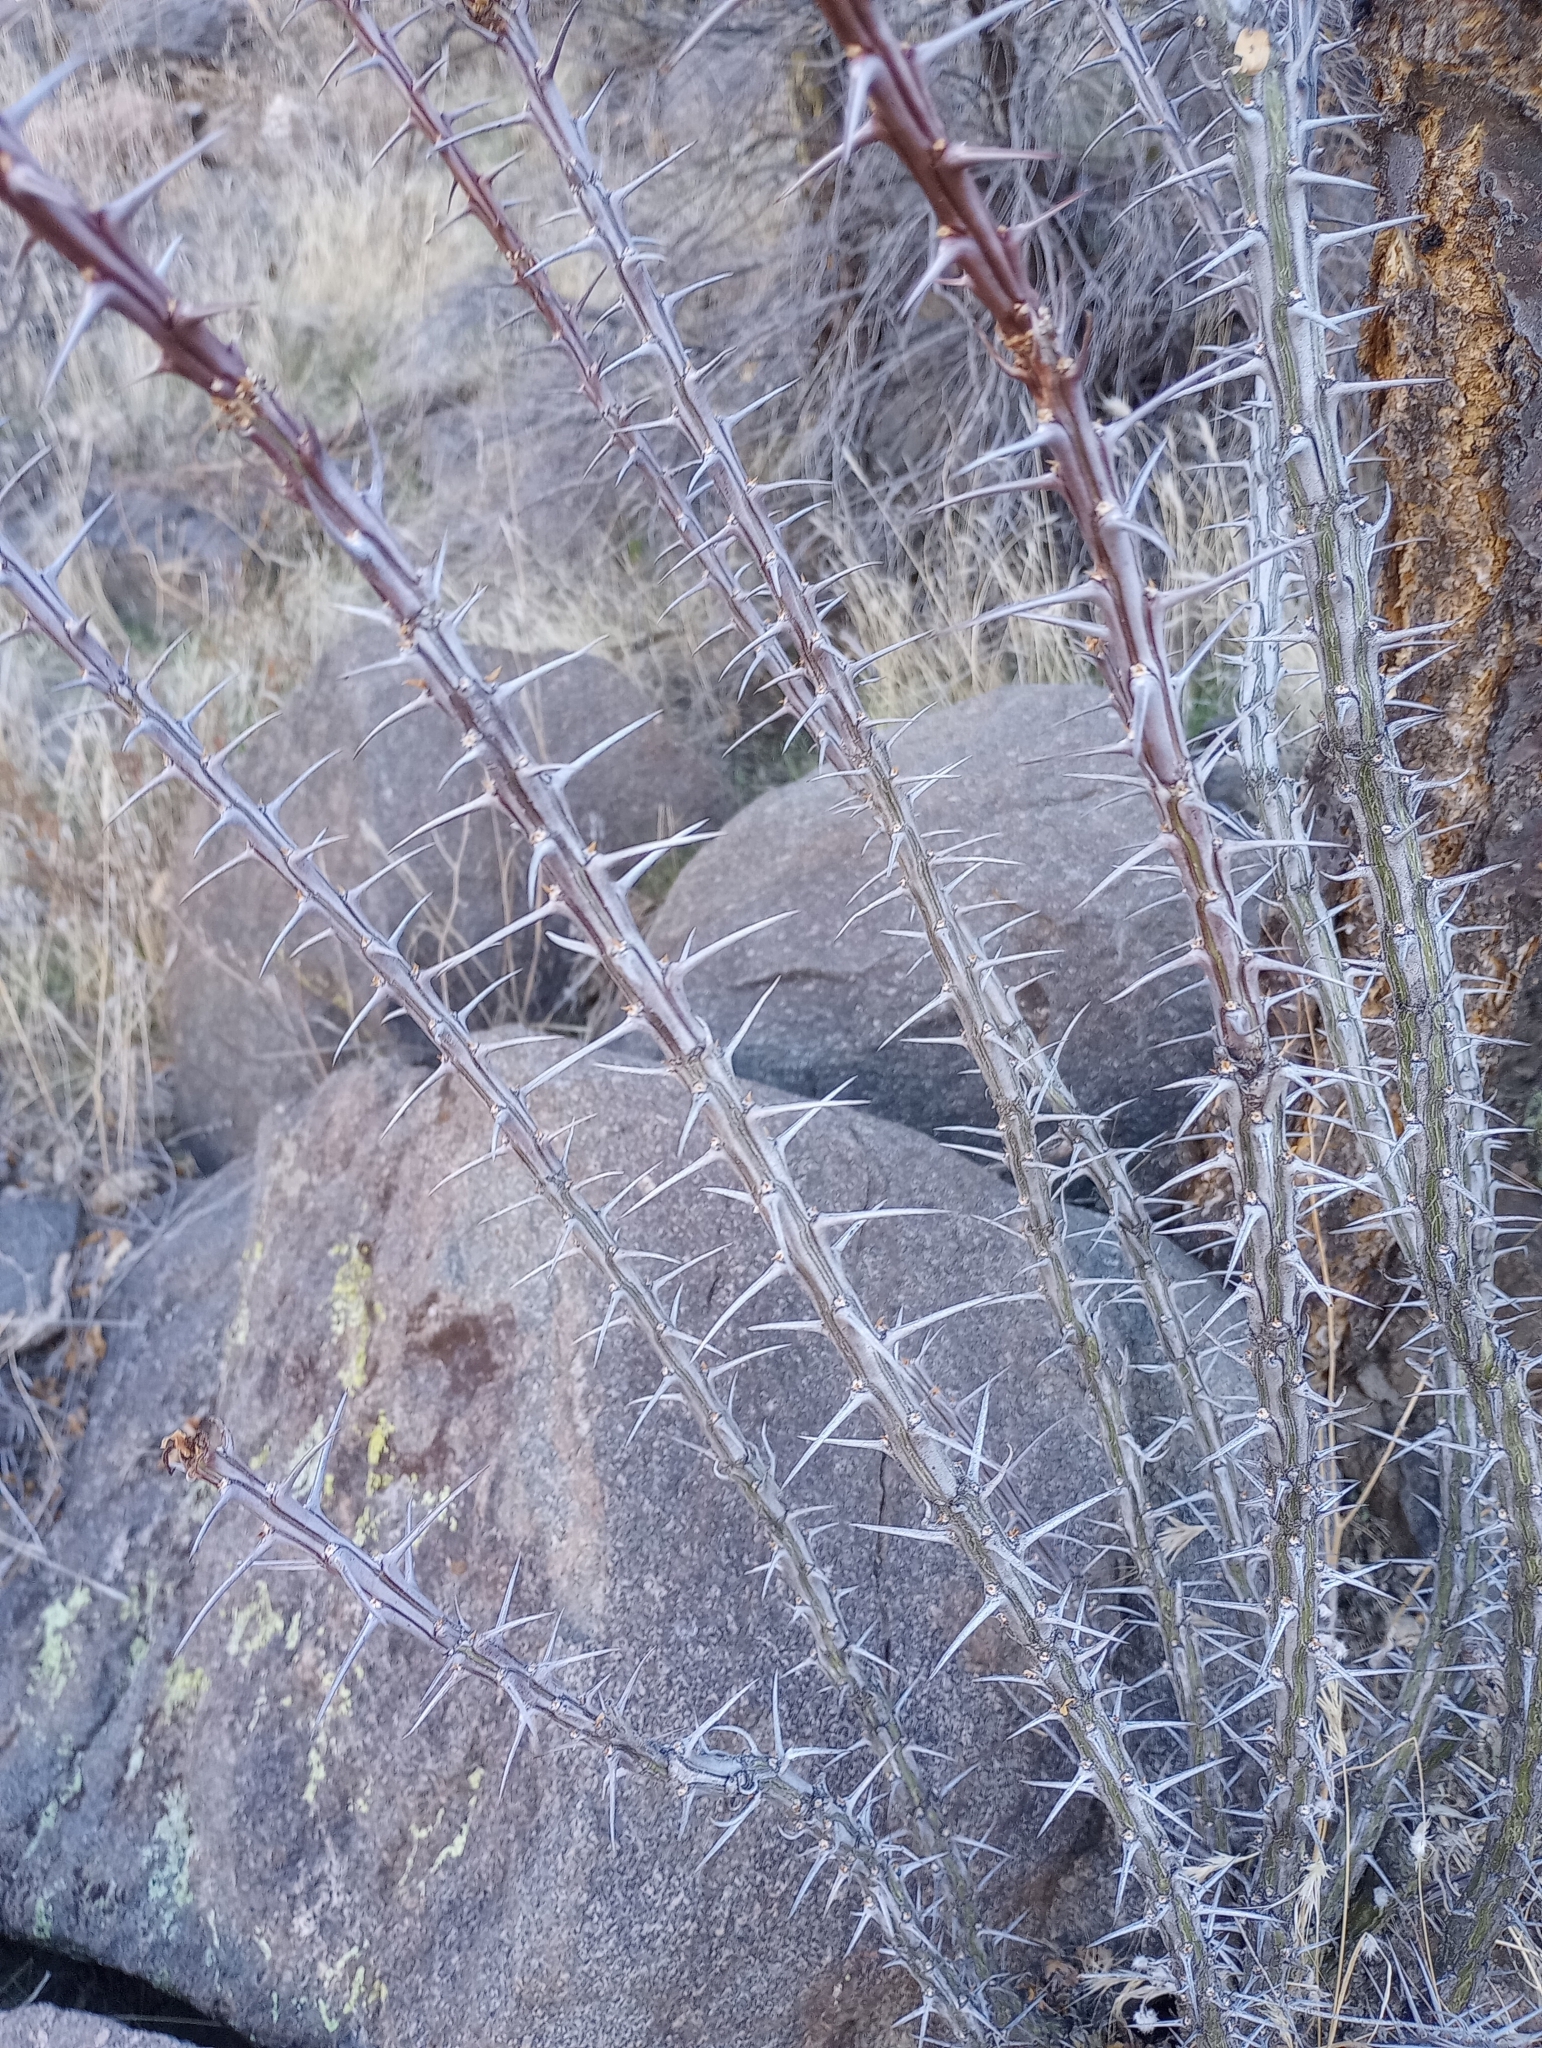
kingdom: Plantae
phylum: Tracheophyta
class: Magnoliopsida
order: Ericales
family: Fouquieriaceae
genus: Fouquieria
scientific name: Fouquieria splendens
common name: Vine-cactus
